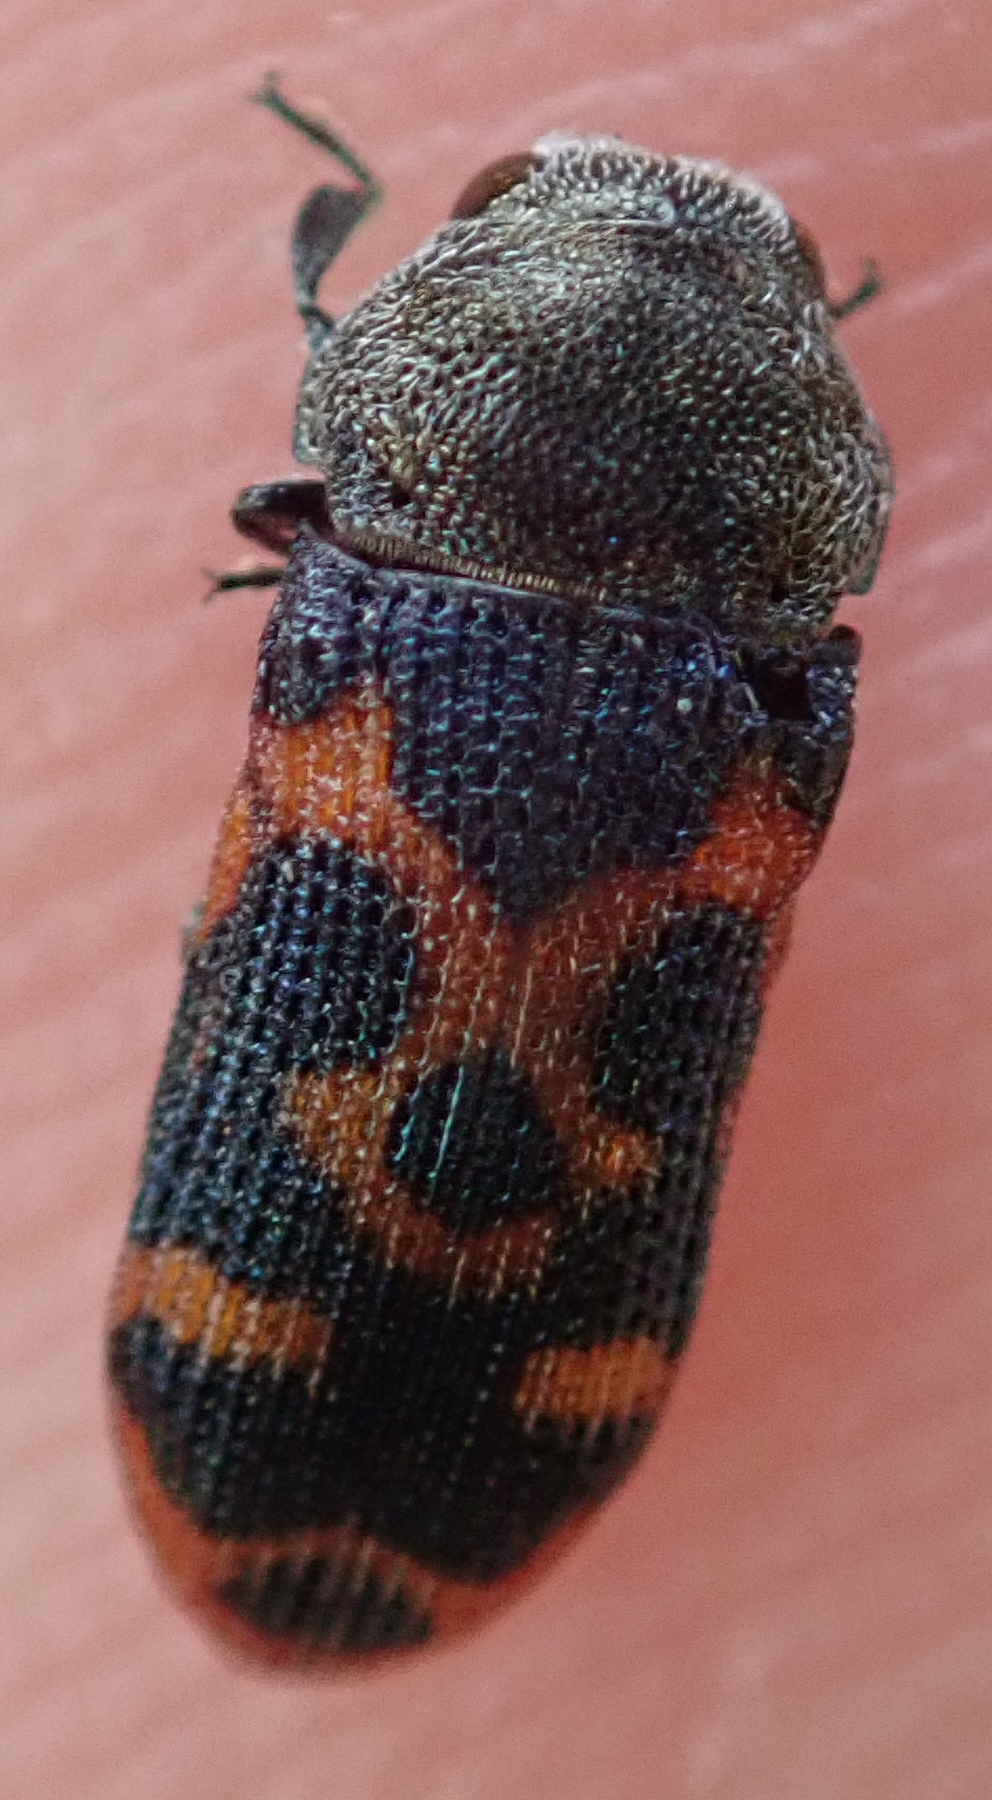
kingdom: Animalia
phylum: Arthropoda
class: Insecta
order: Coleoptera
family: Buprestidae
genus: Acmaeodera
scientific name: Acmaeodera stellata
